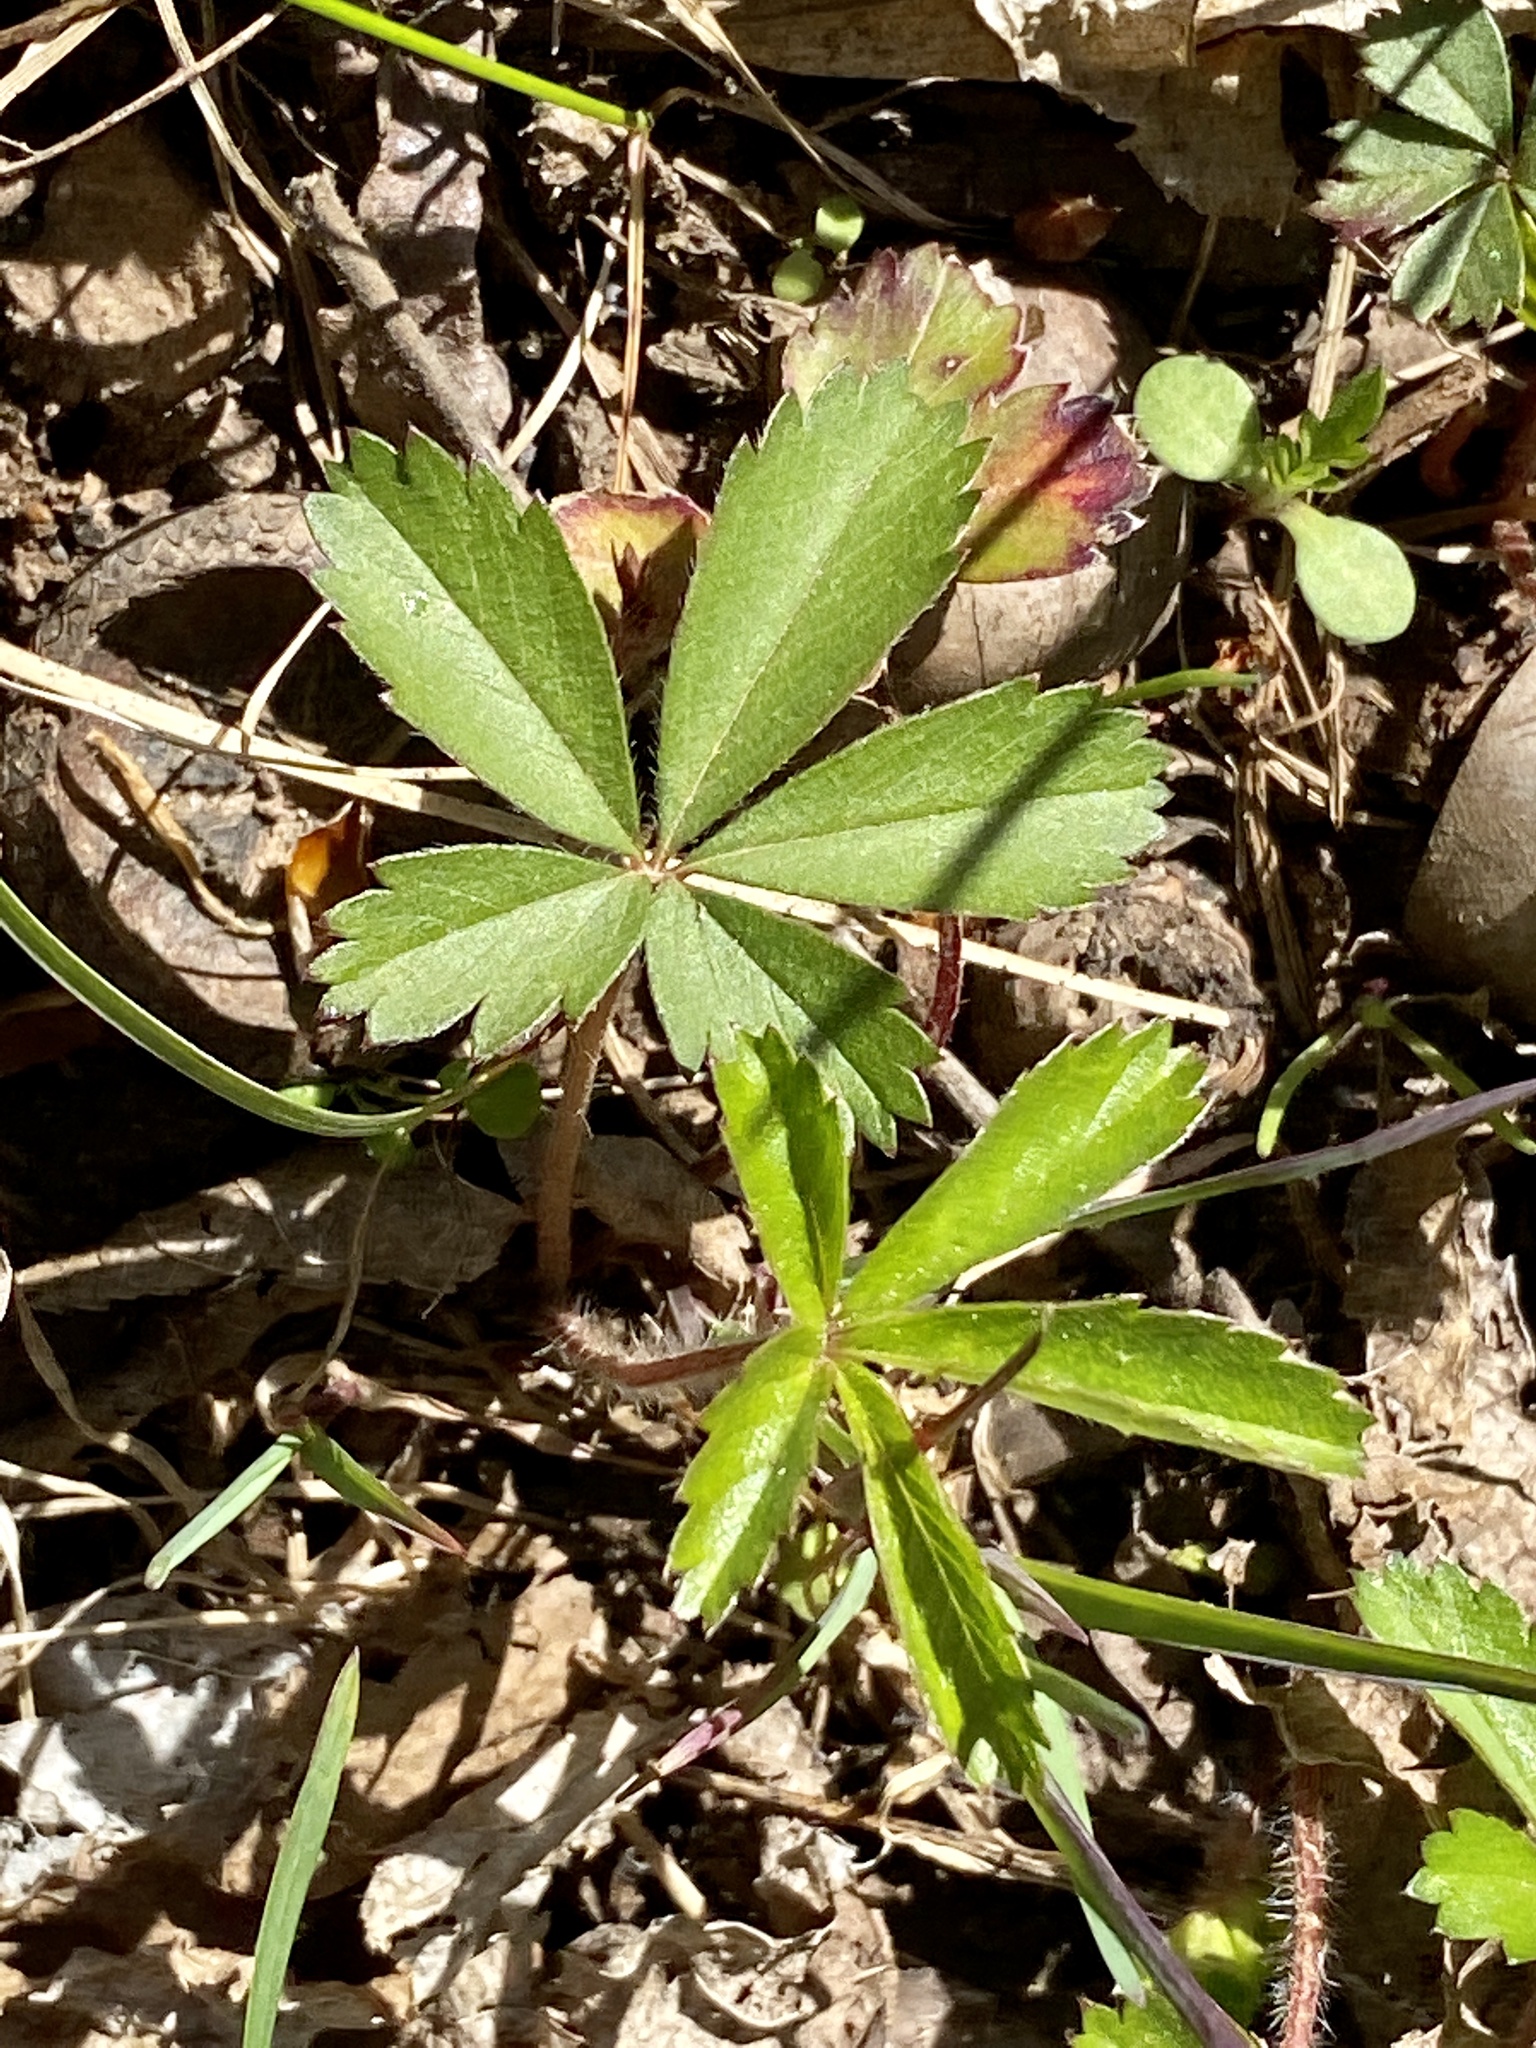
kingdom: Plantae
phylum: Tracheophyta
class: Magnoliopsida
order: Rosales
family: Rosaceae
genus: Potentilla
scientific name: Potentilla canadensis
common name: Canada cinquefoil
